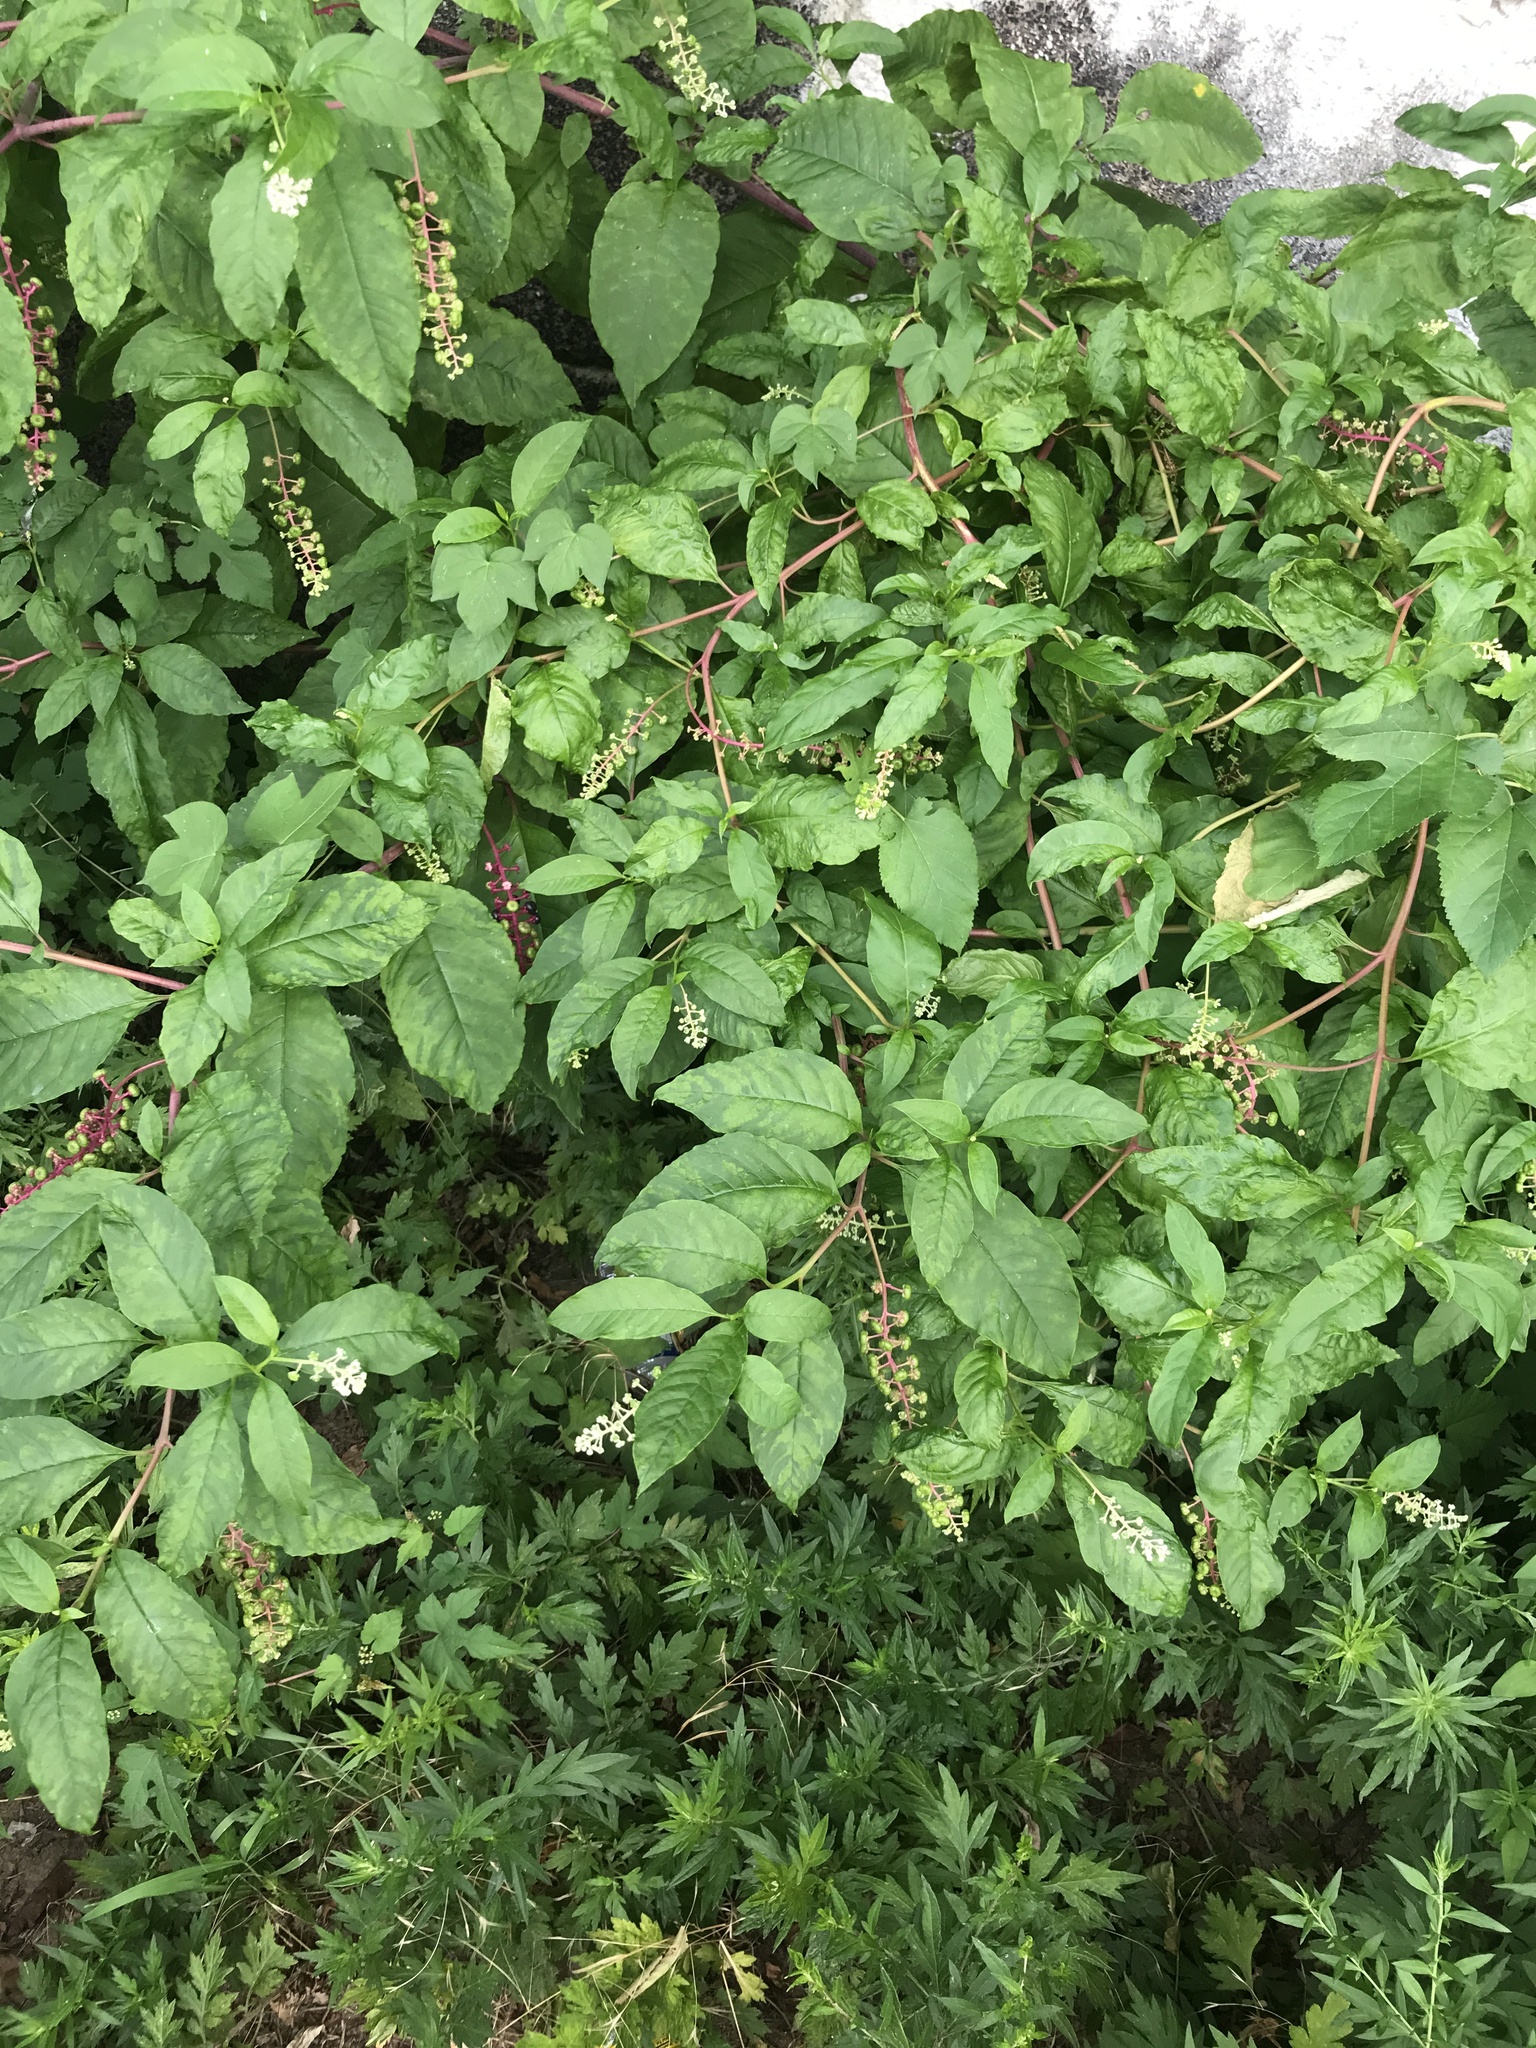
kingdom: Plantae
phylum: Tracheophyta
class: Magnoliopsida
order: Caryophyllales
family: Phytolaccaceae
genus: Phytolacca
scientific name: Phytolacca americana
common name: American pokeweed
